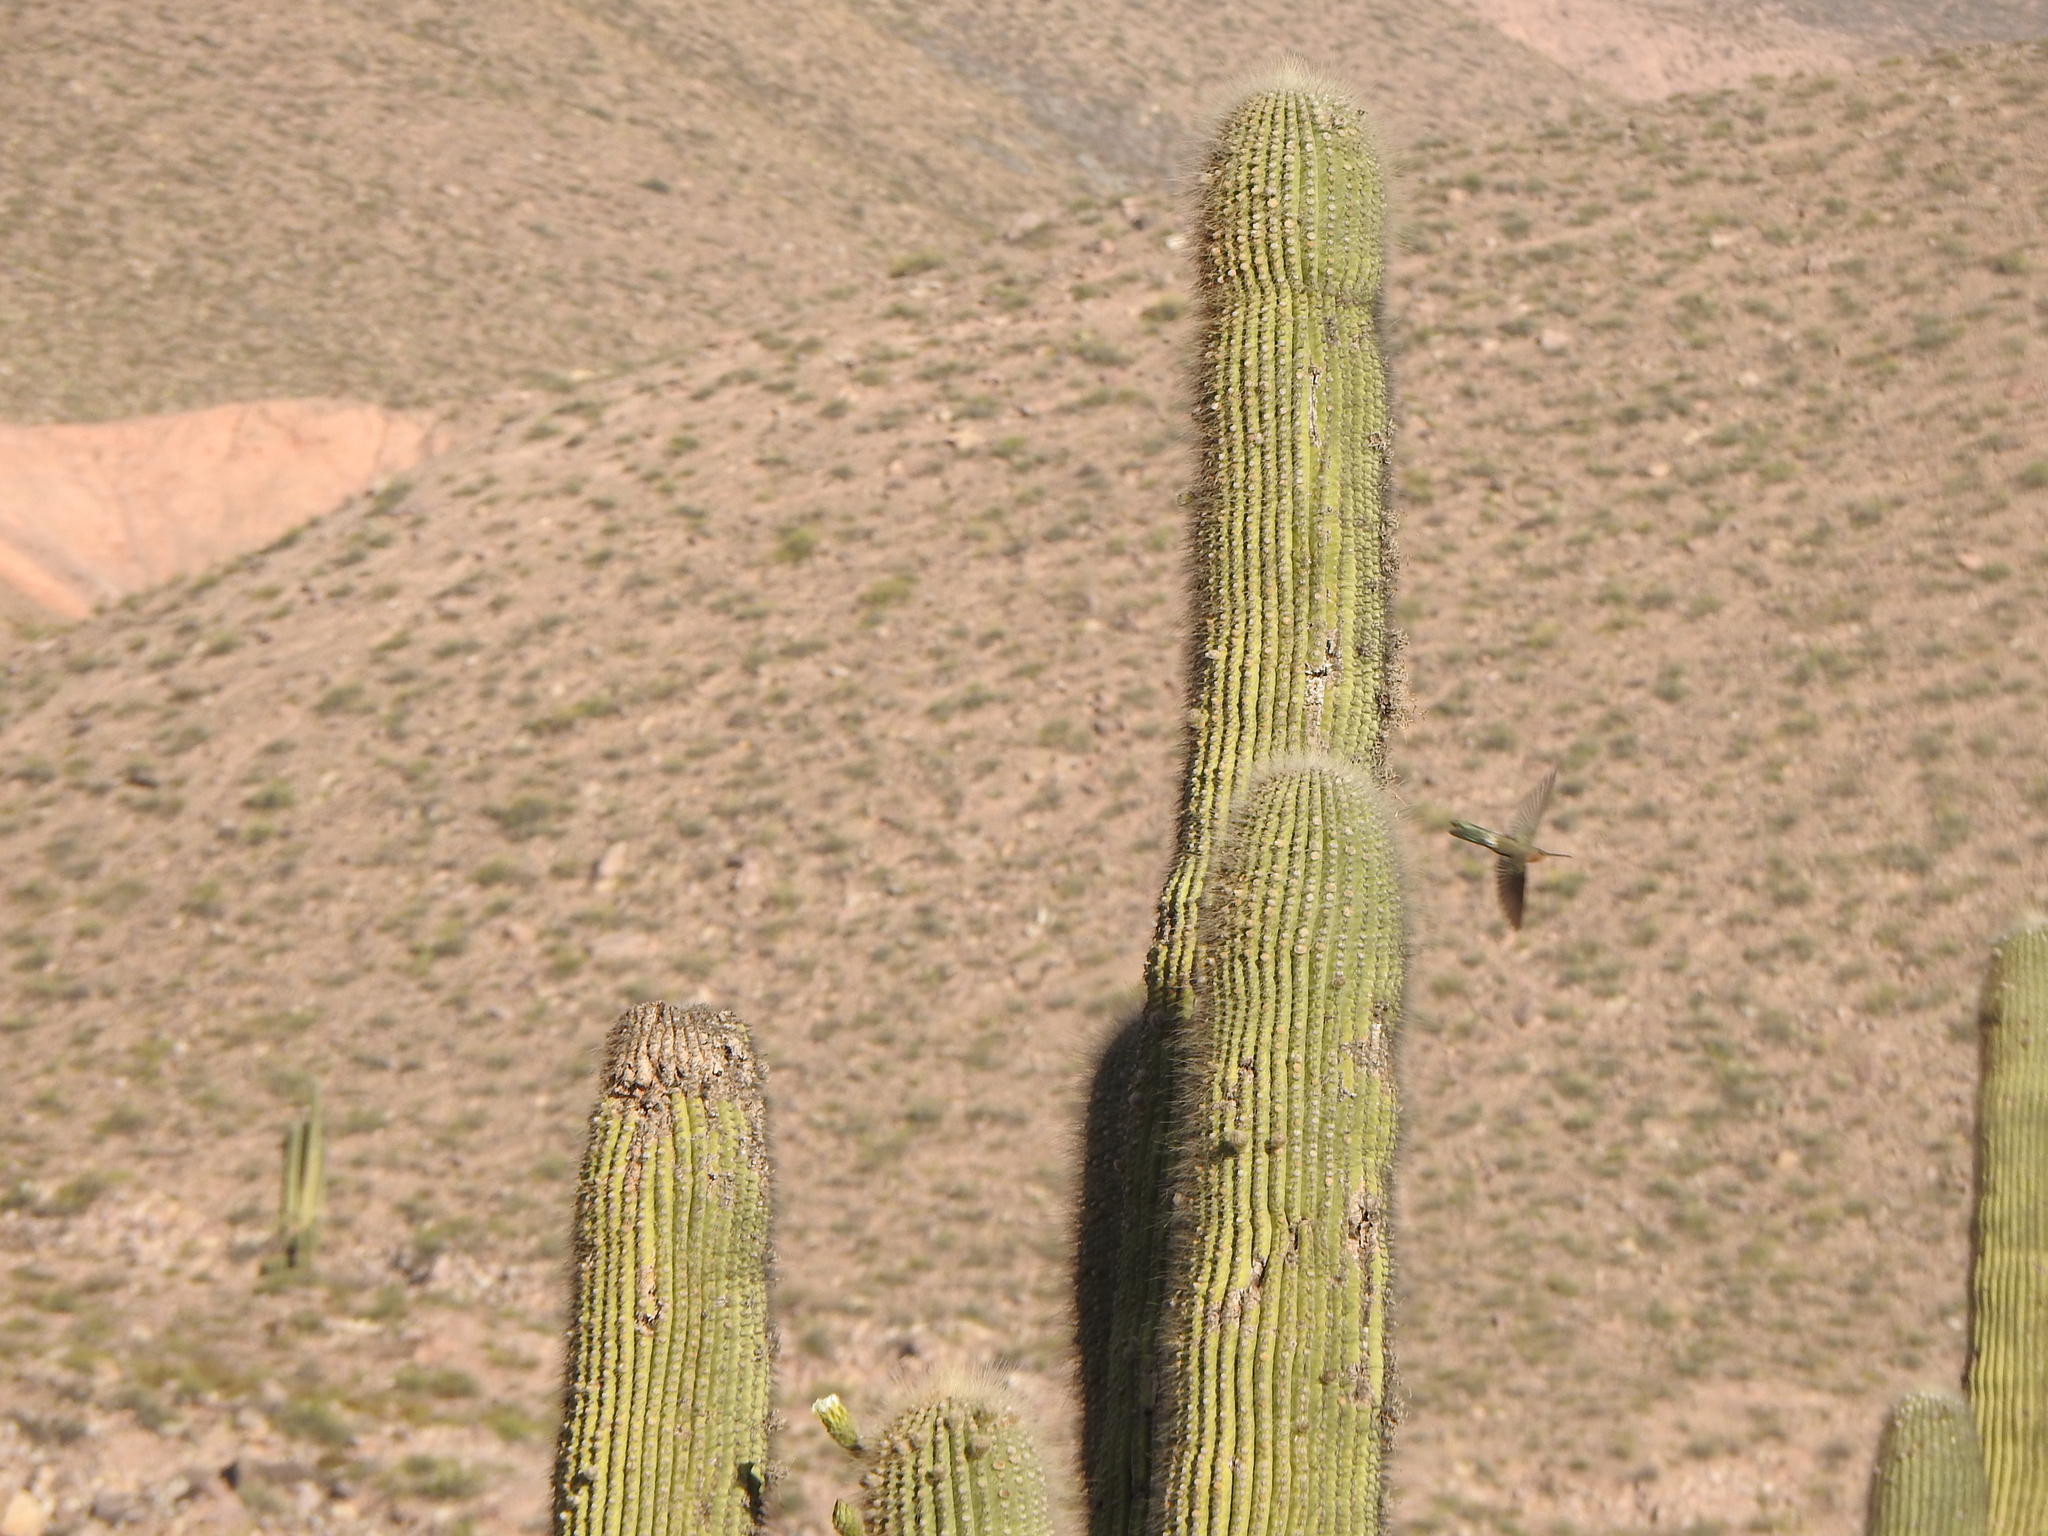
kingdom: Animalia
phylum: Chordata
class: Aves
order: Apodiformes
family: Trochilidae
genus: Patagona
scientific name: Patagona gigas
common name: Giant hummingbird
